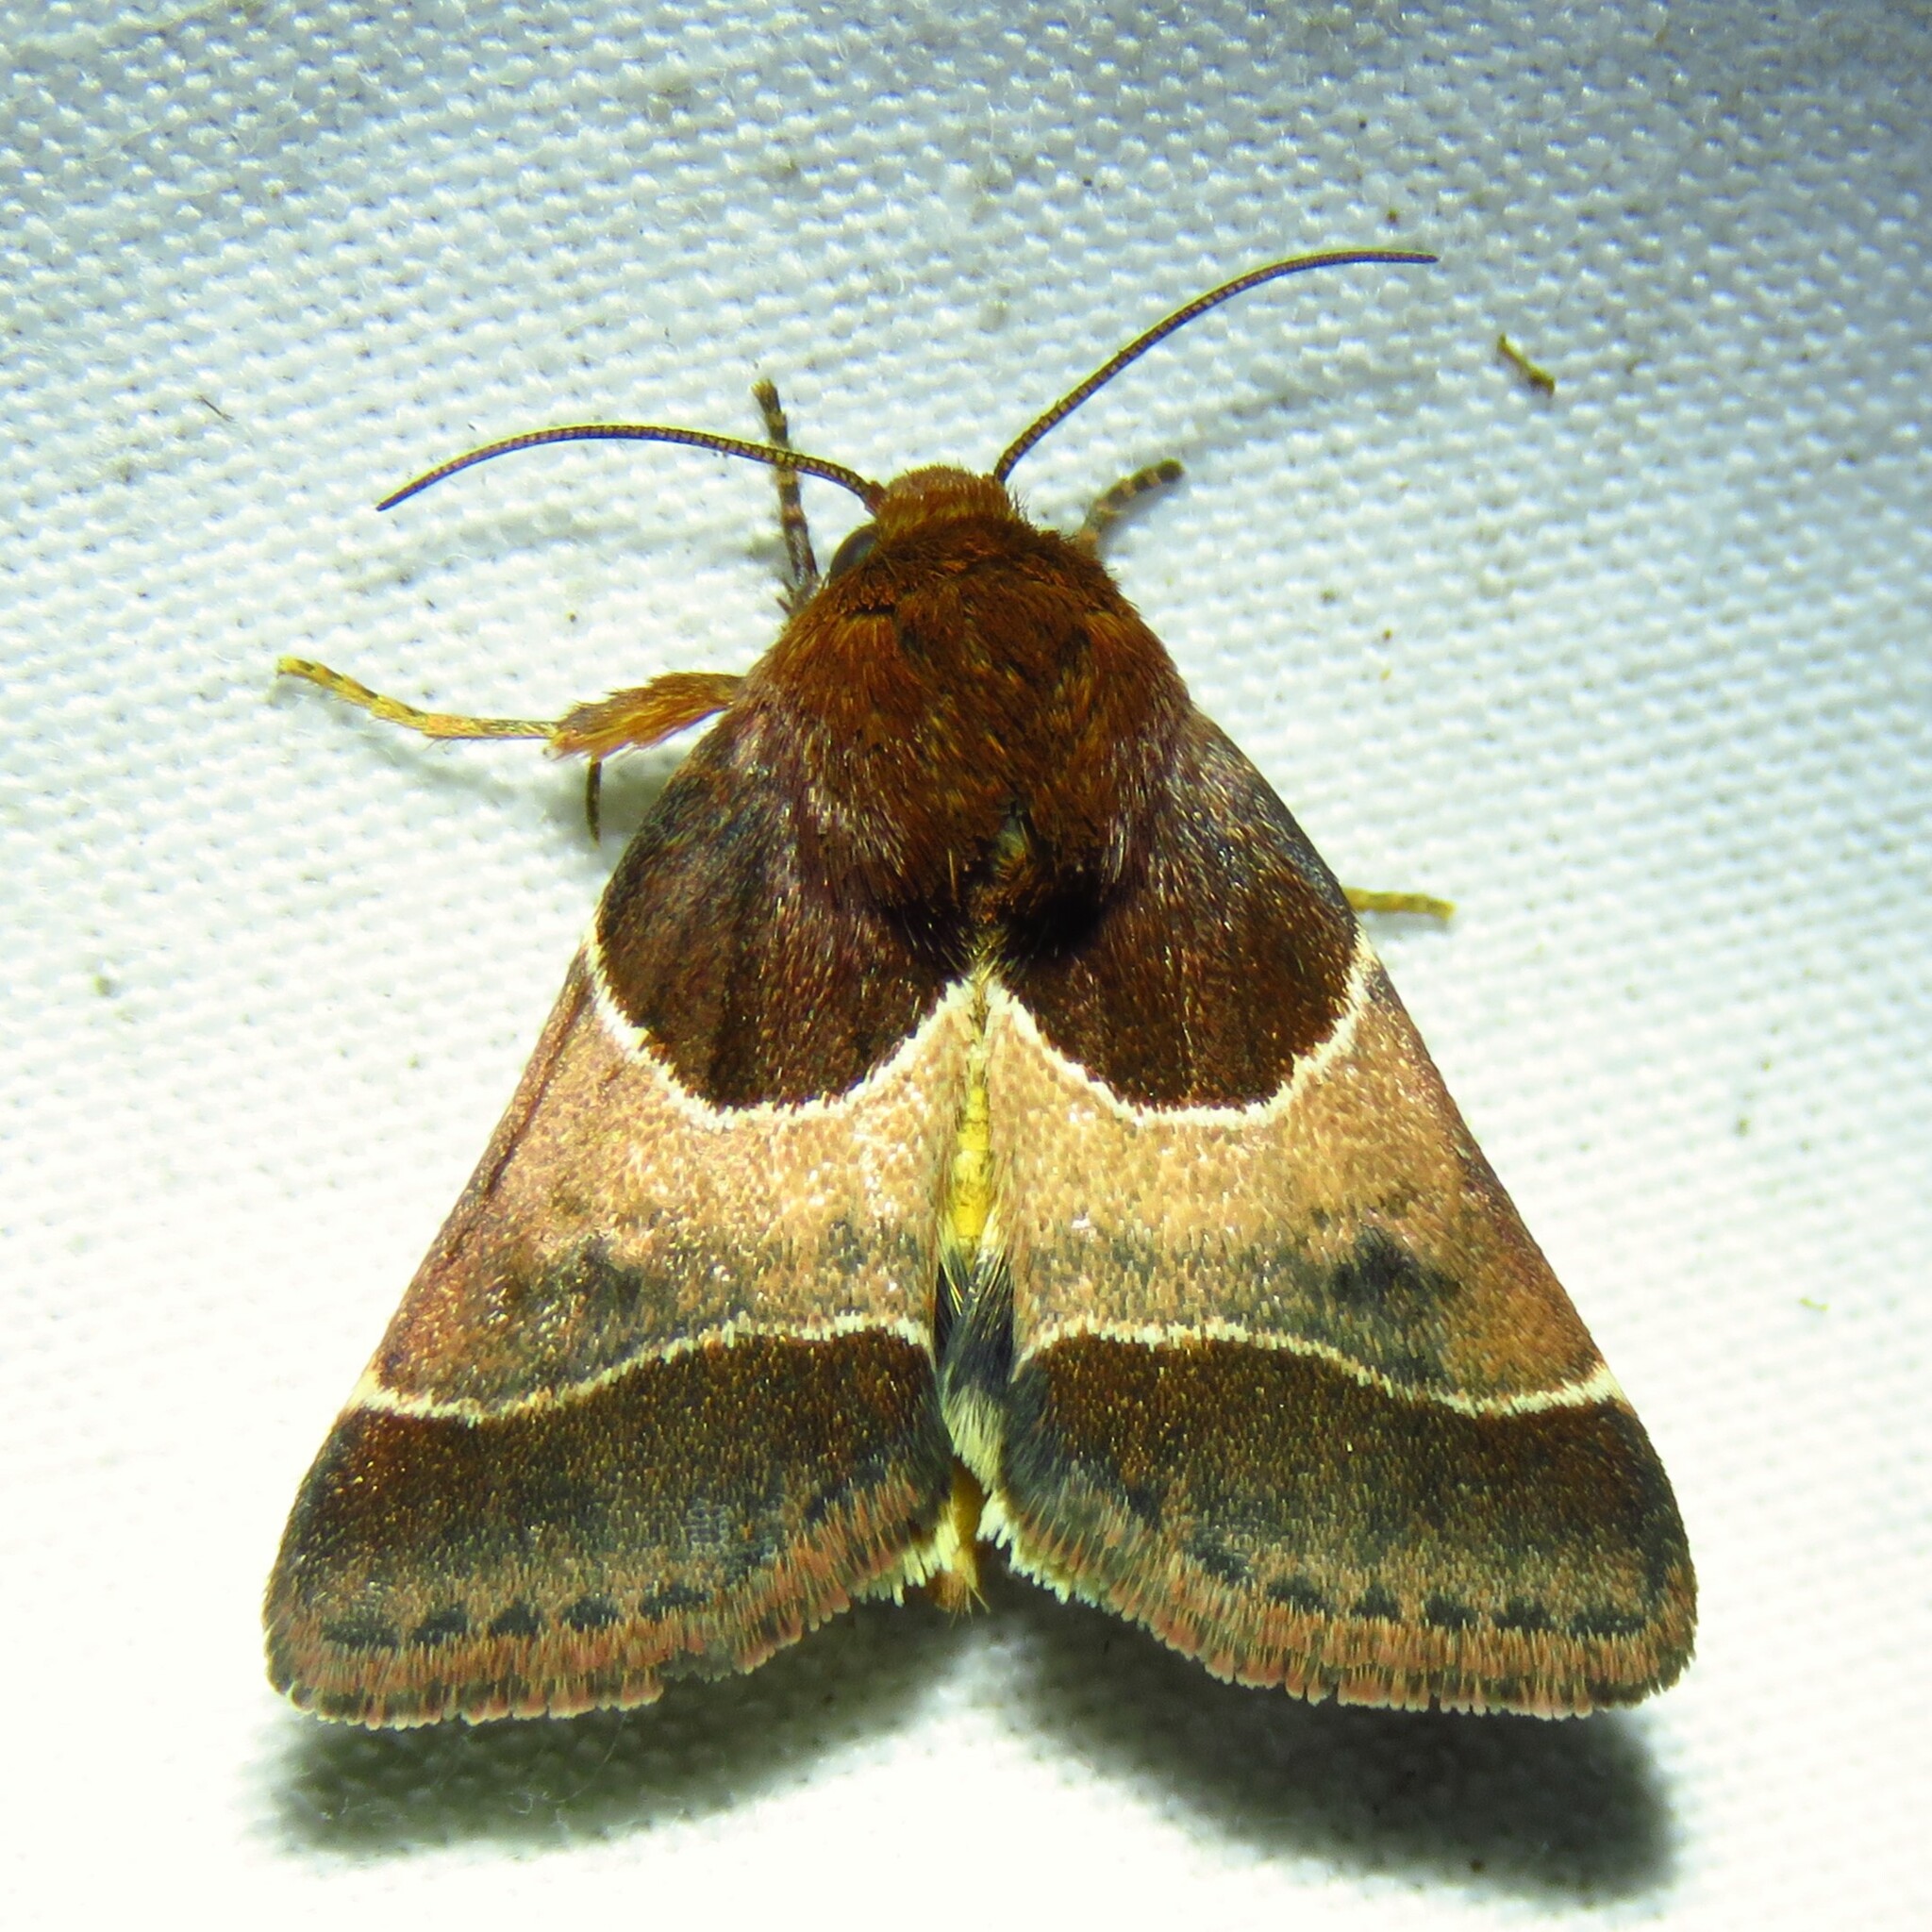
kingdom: Animalia
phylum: Arthropoda
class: Insecta
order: Lepidoptera
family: Noctuidae
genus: Schinia
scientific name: Schinia arcigera
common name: Arcigera flower moth
